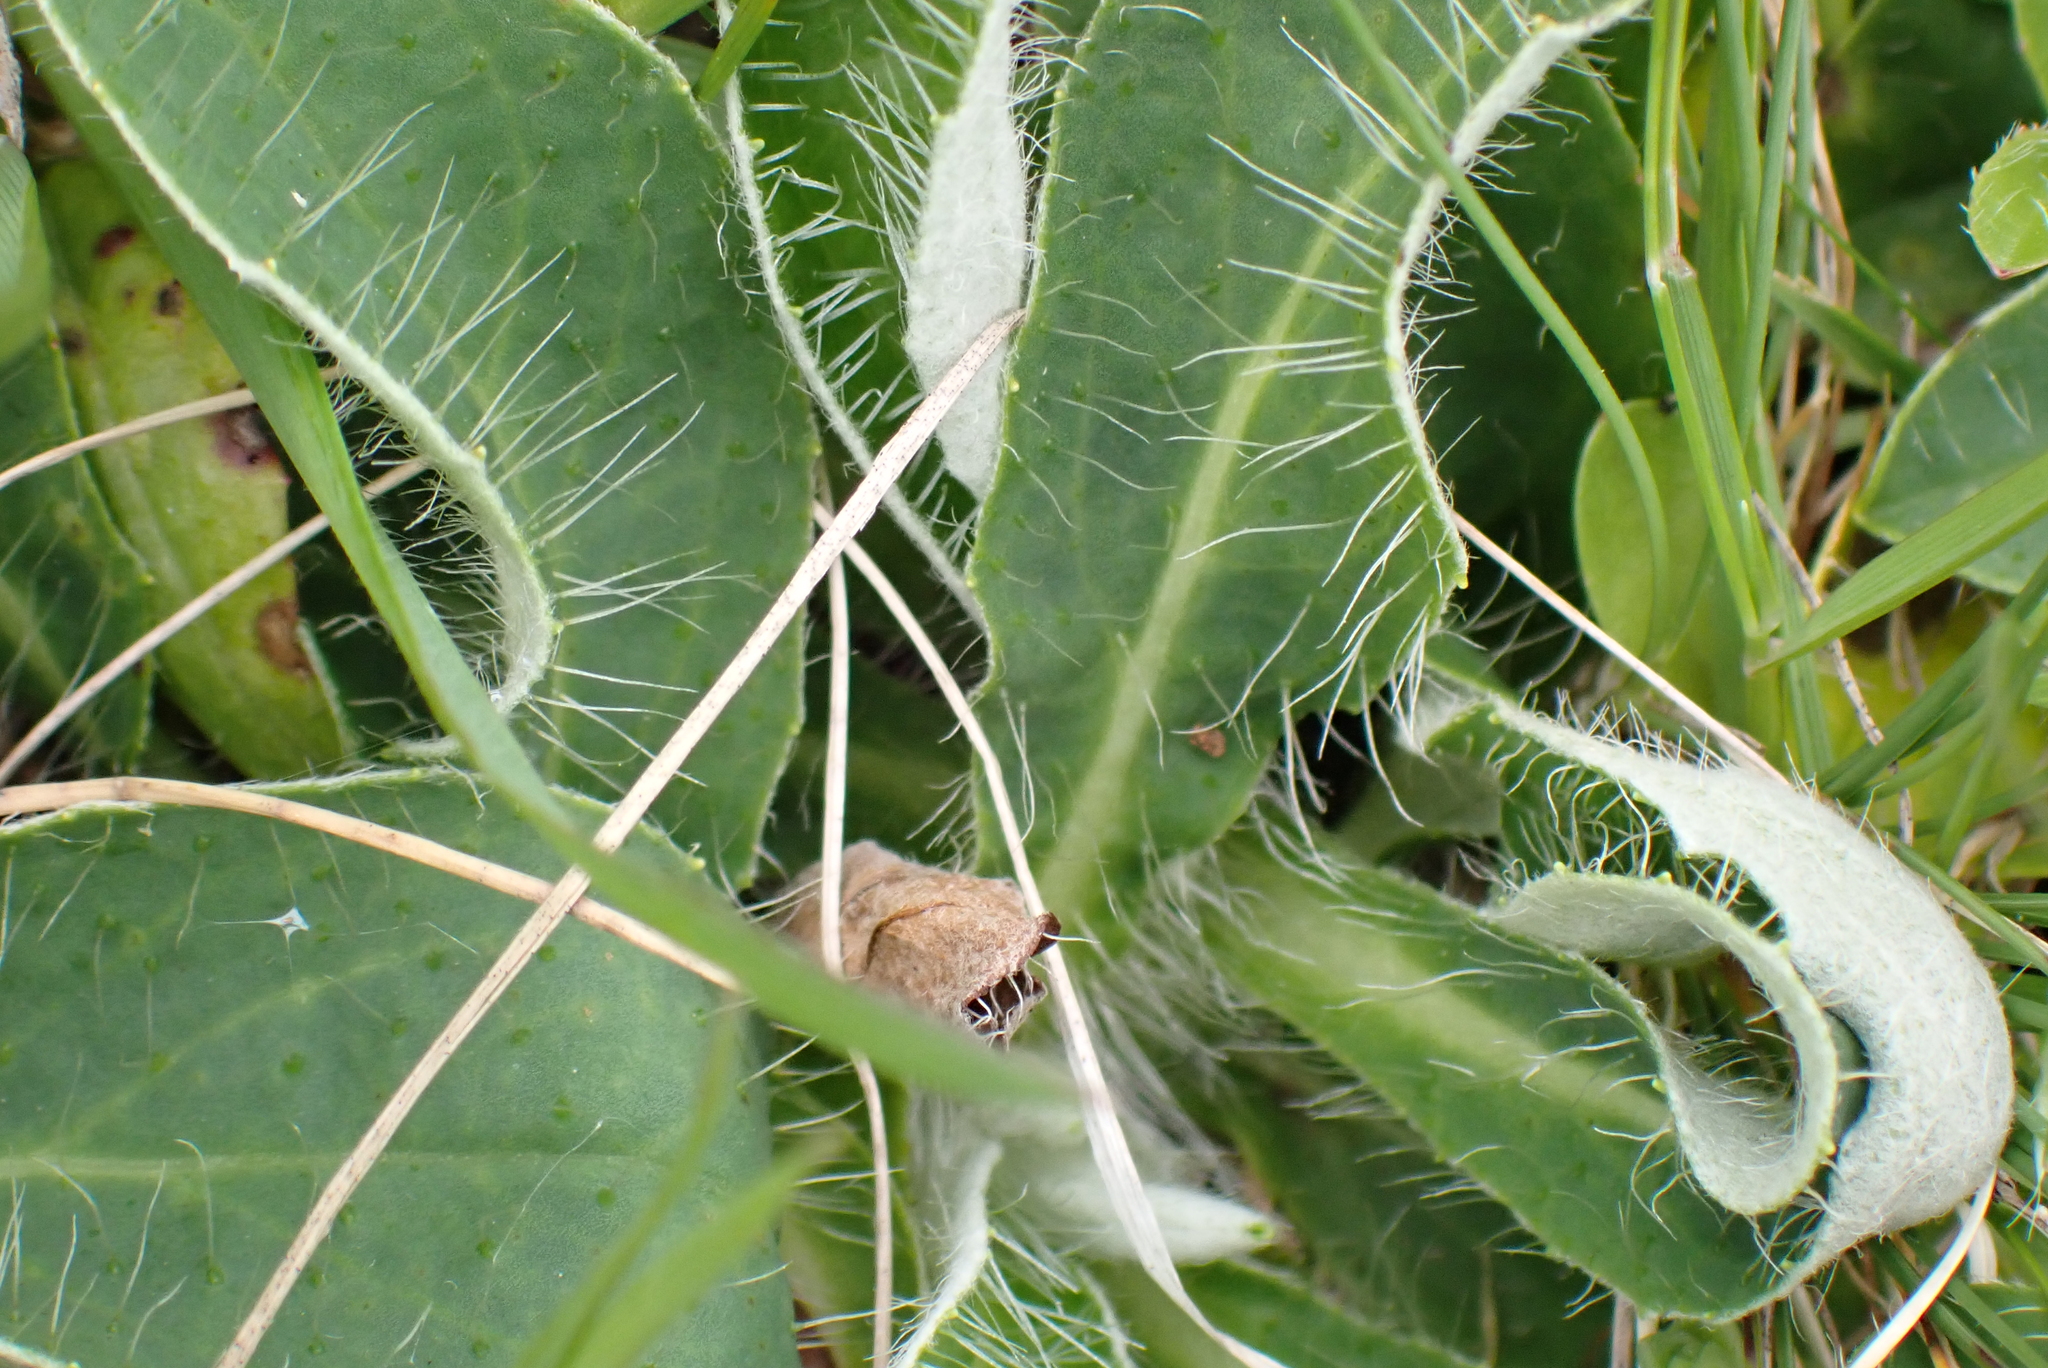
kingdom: Plantae
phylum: Tracheophyta
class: Magnoliopsida
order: Asterales
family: Asteraceae
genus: Pilosella
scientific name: Pilosella officinarum
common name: Mouse-ear hawkweed
